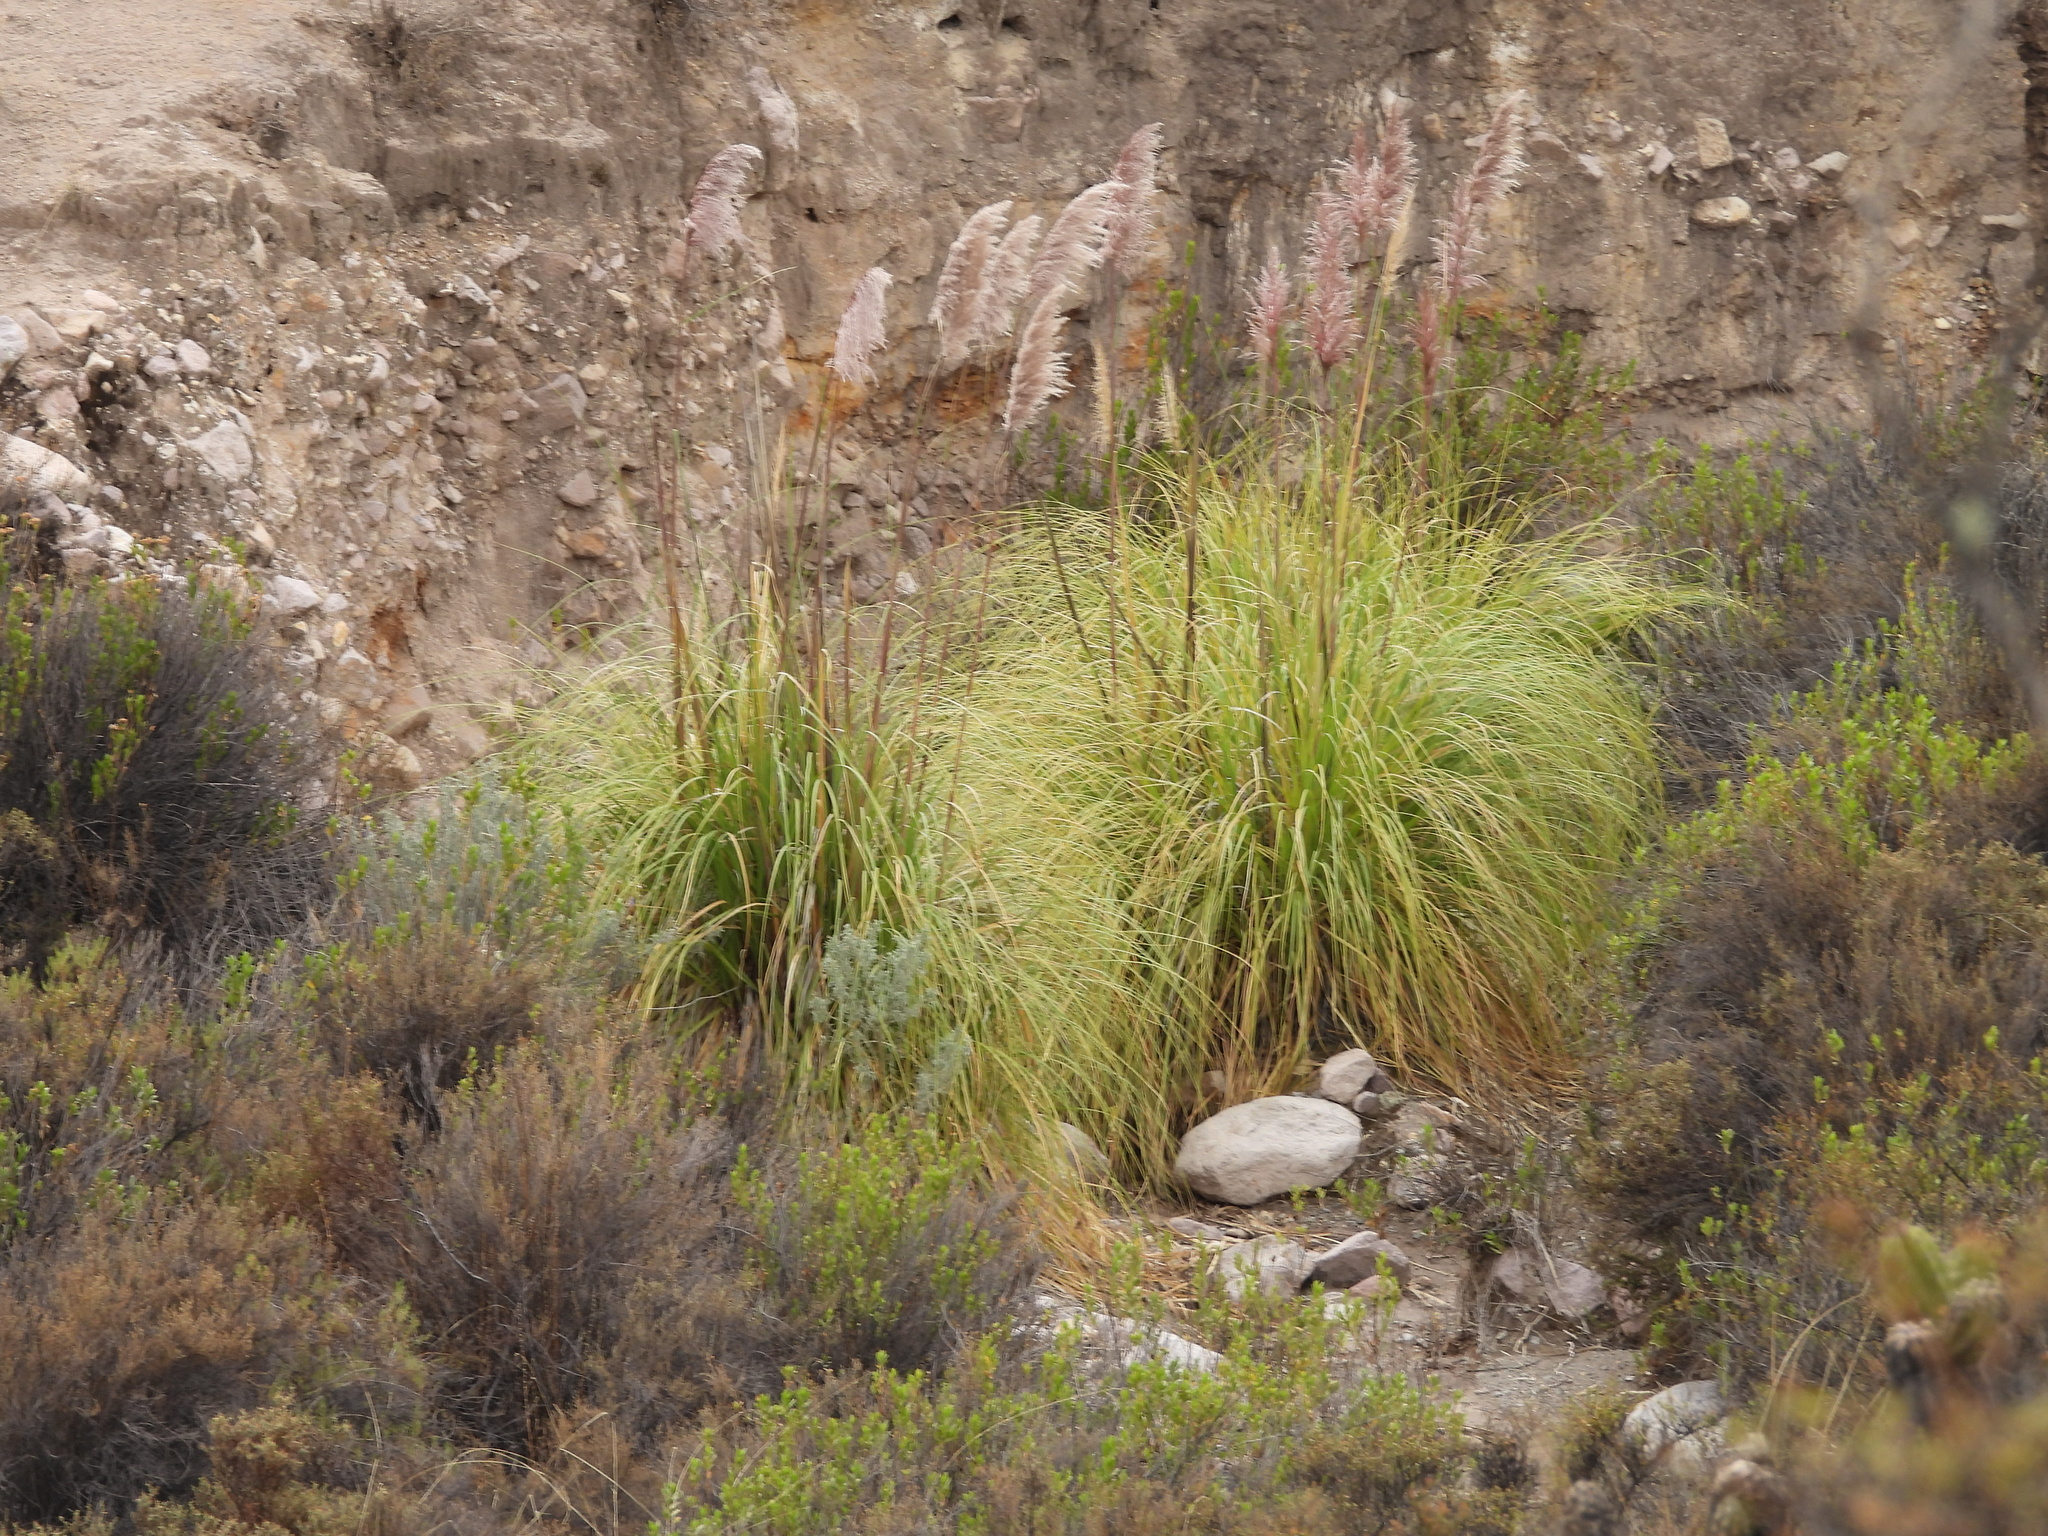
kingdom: Plantae
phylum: Tracheophyta
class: Liliopsida
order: Poales
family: Poaceae
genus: Cortaderia
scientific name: Cortaderia selloana
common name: Uruguayan pampas grass
